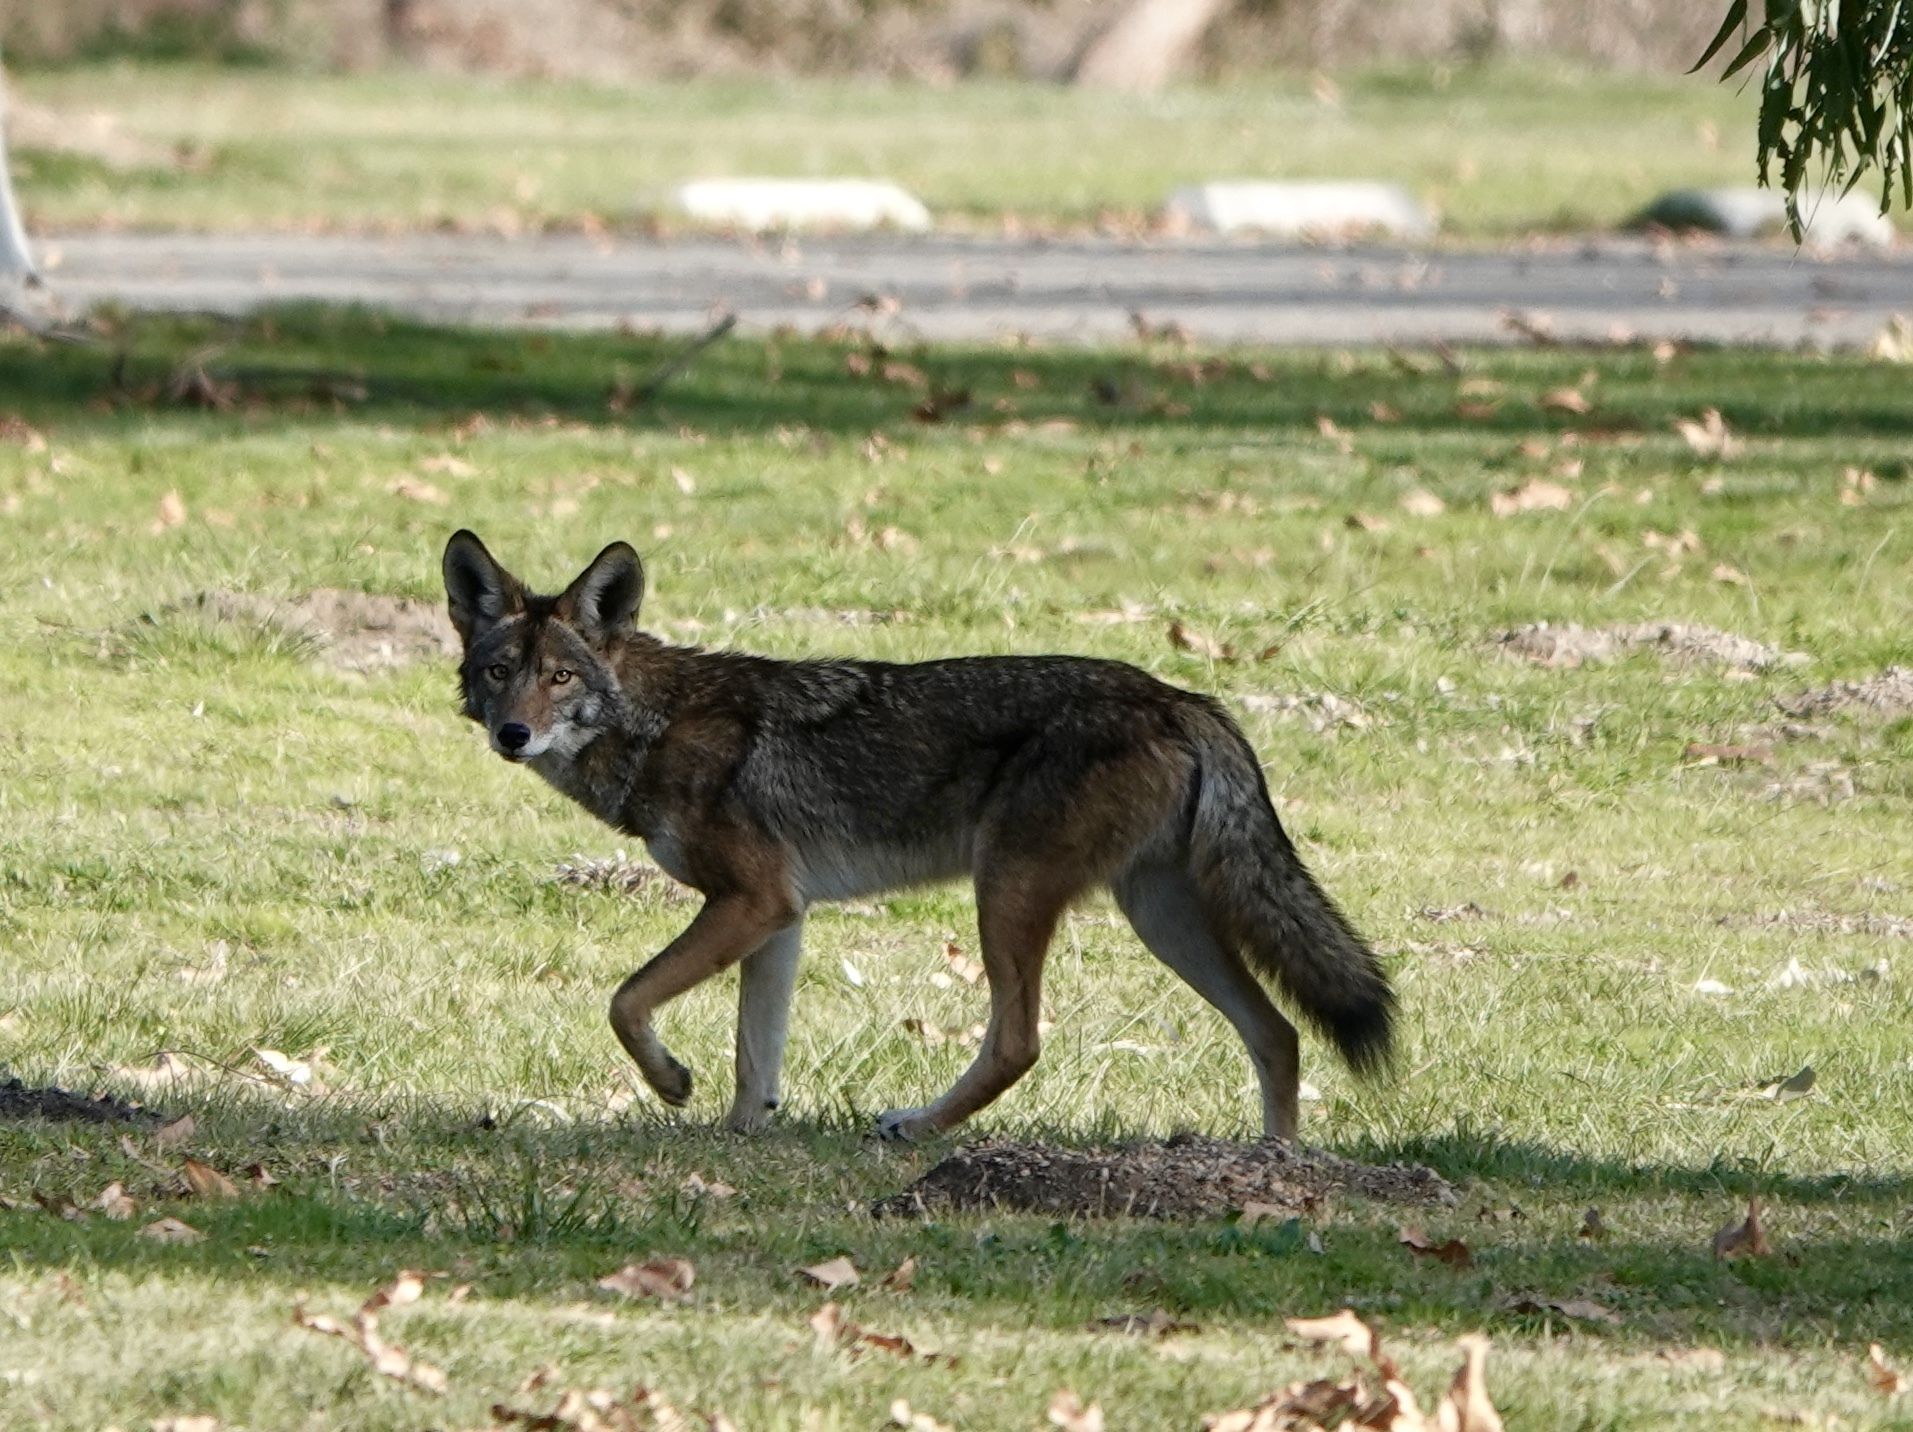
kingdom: Animalia
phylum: Chordata
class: Mammalia
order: Carnivora
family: Canidae
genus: Canis
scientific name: Canis latrans
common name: Coyote
